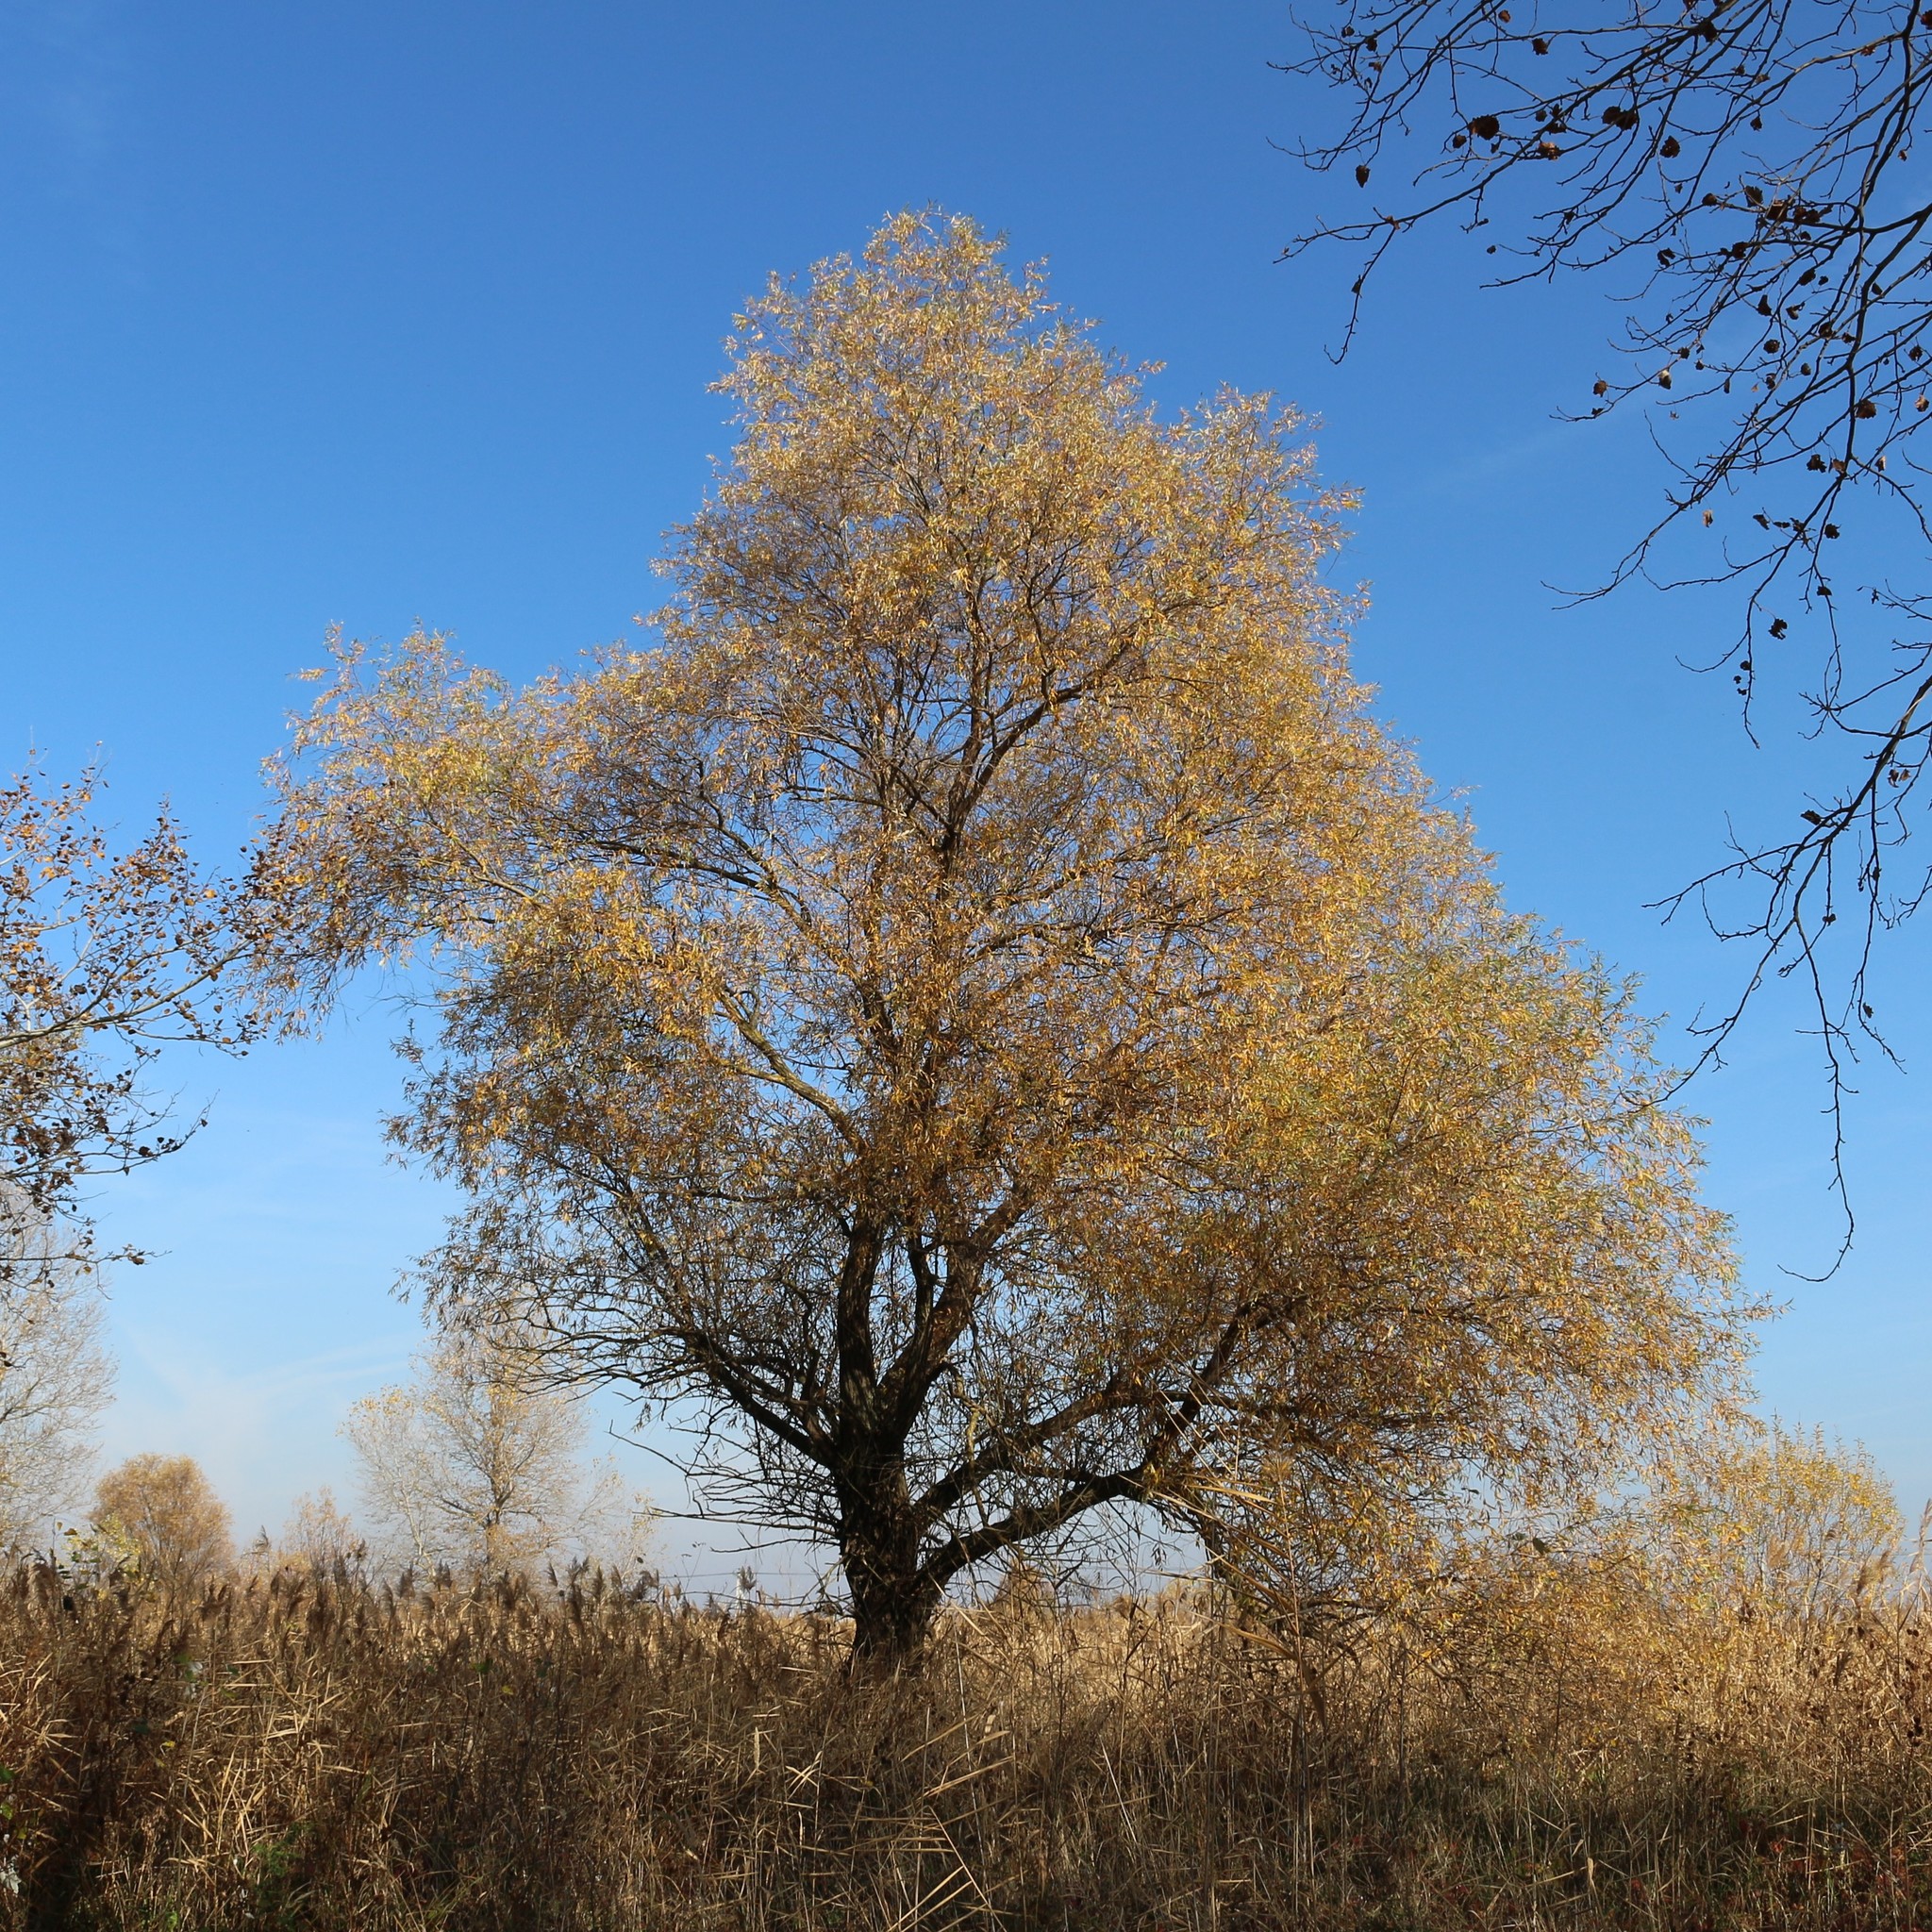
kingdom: Plantae
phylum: Tracheophyta
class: Magnoliopsida
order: Malpighiales
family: Salicaceae
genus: Salix
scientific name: Salix alba
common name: White willow
